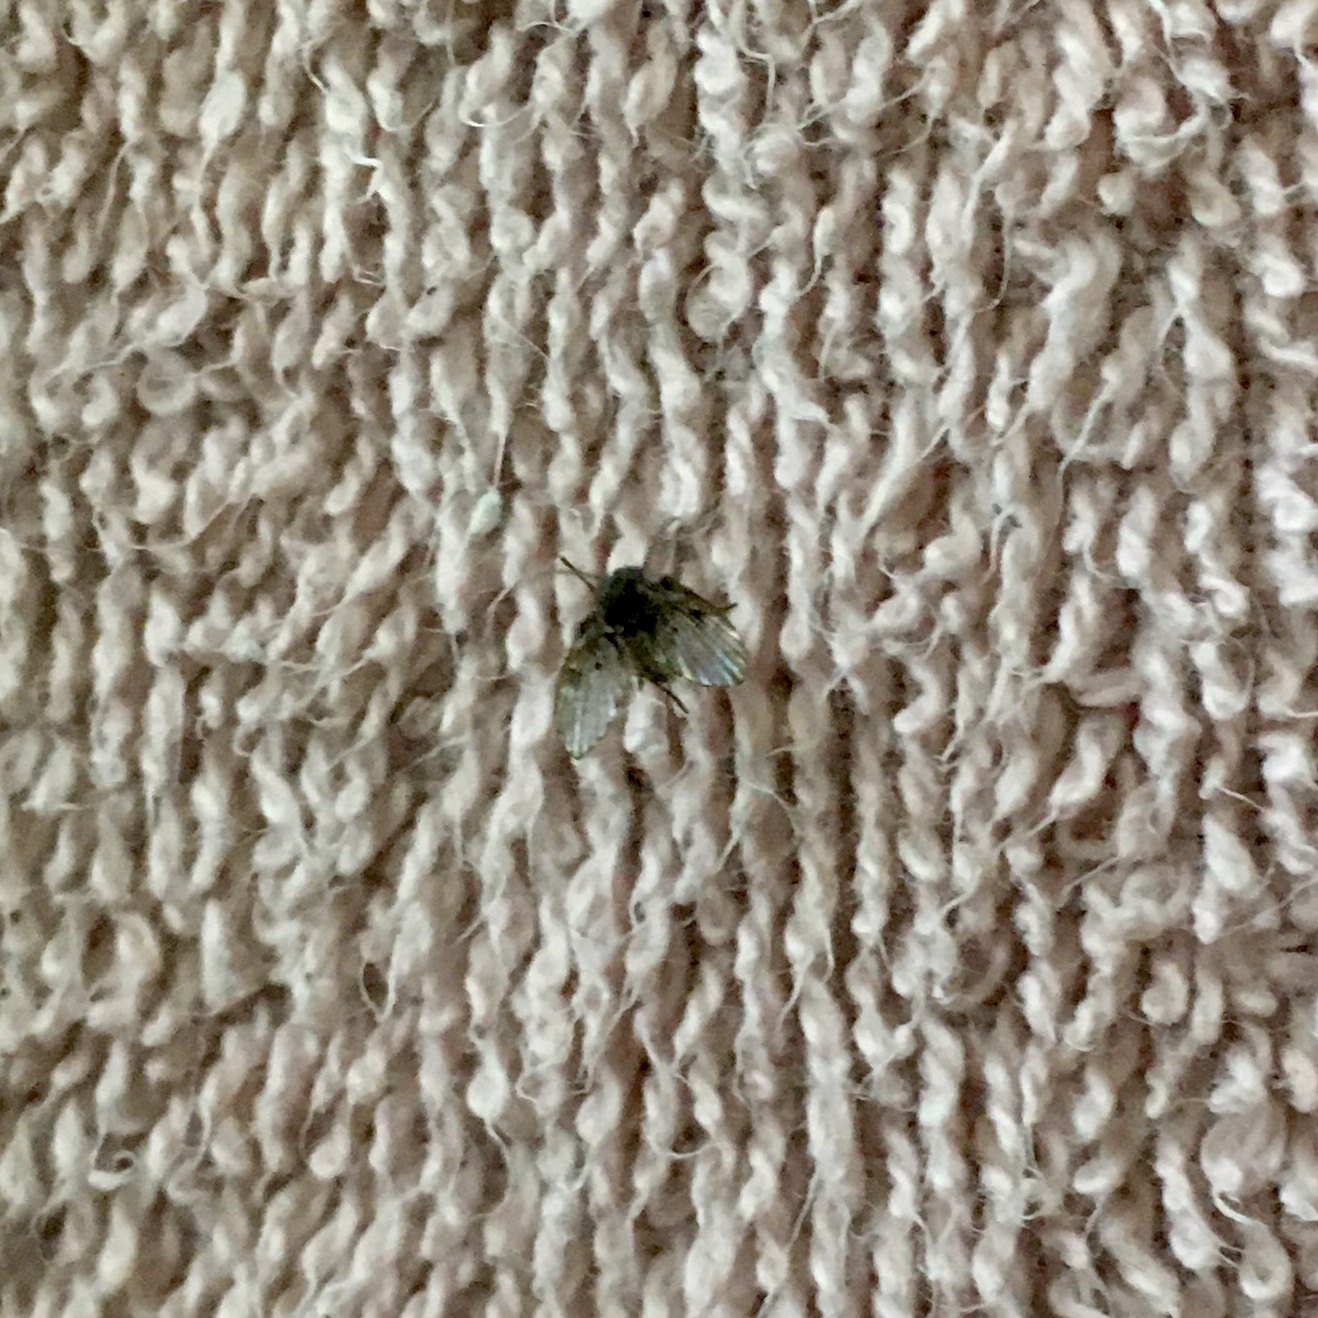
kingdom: Animalia
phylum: Arthropoda
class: Insecta
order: Diptera
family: Psychodidae
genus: Clogmia
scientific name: Clogmia albipunctatus
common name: White-spotted moth fly
